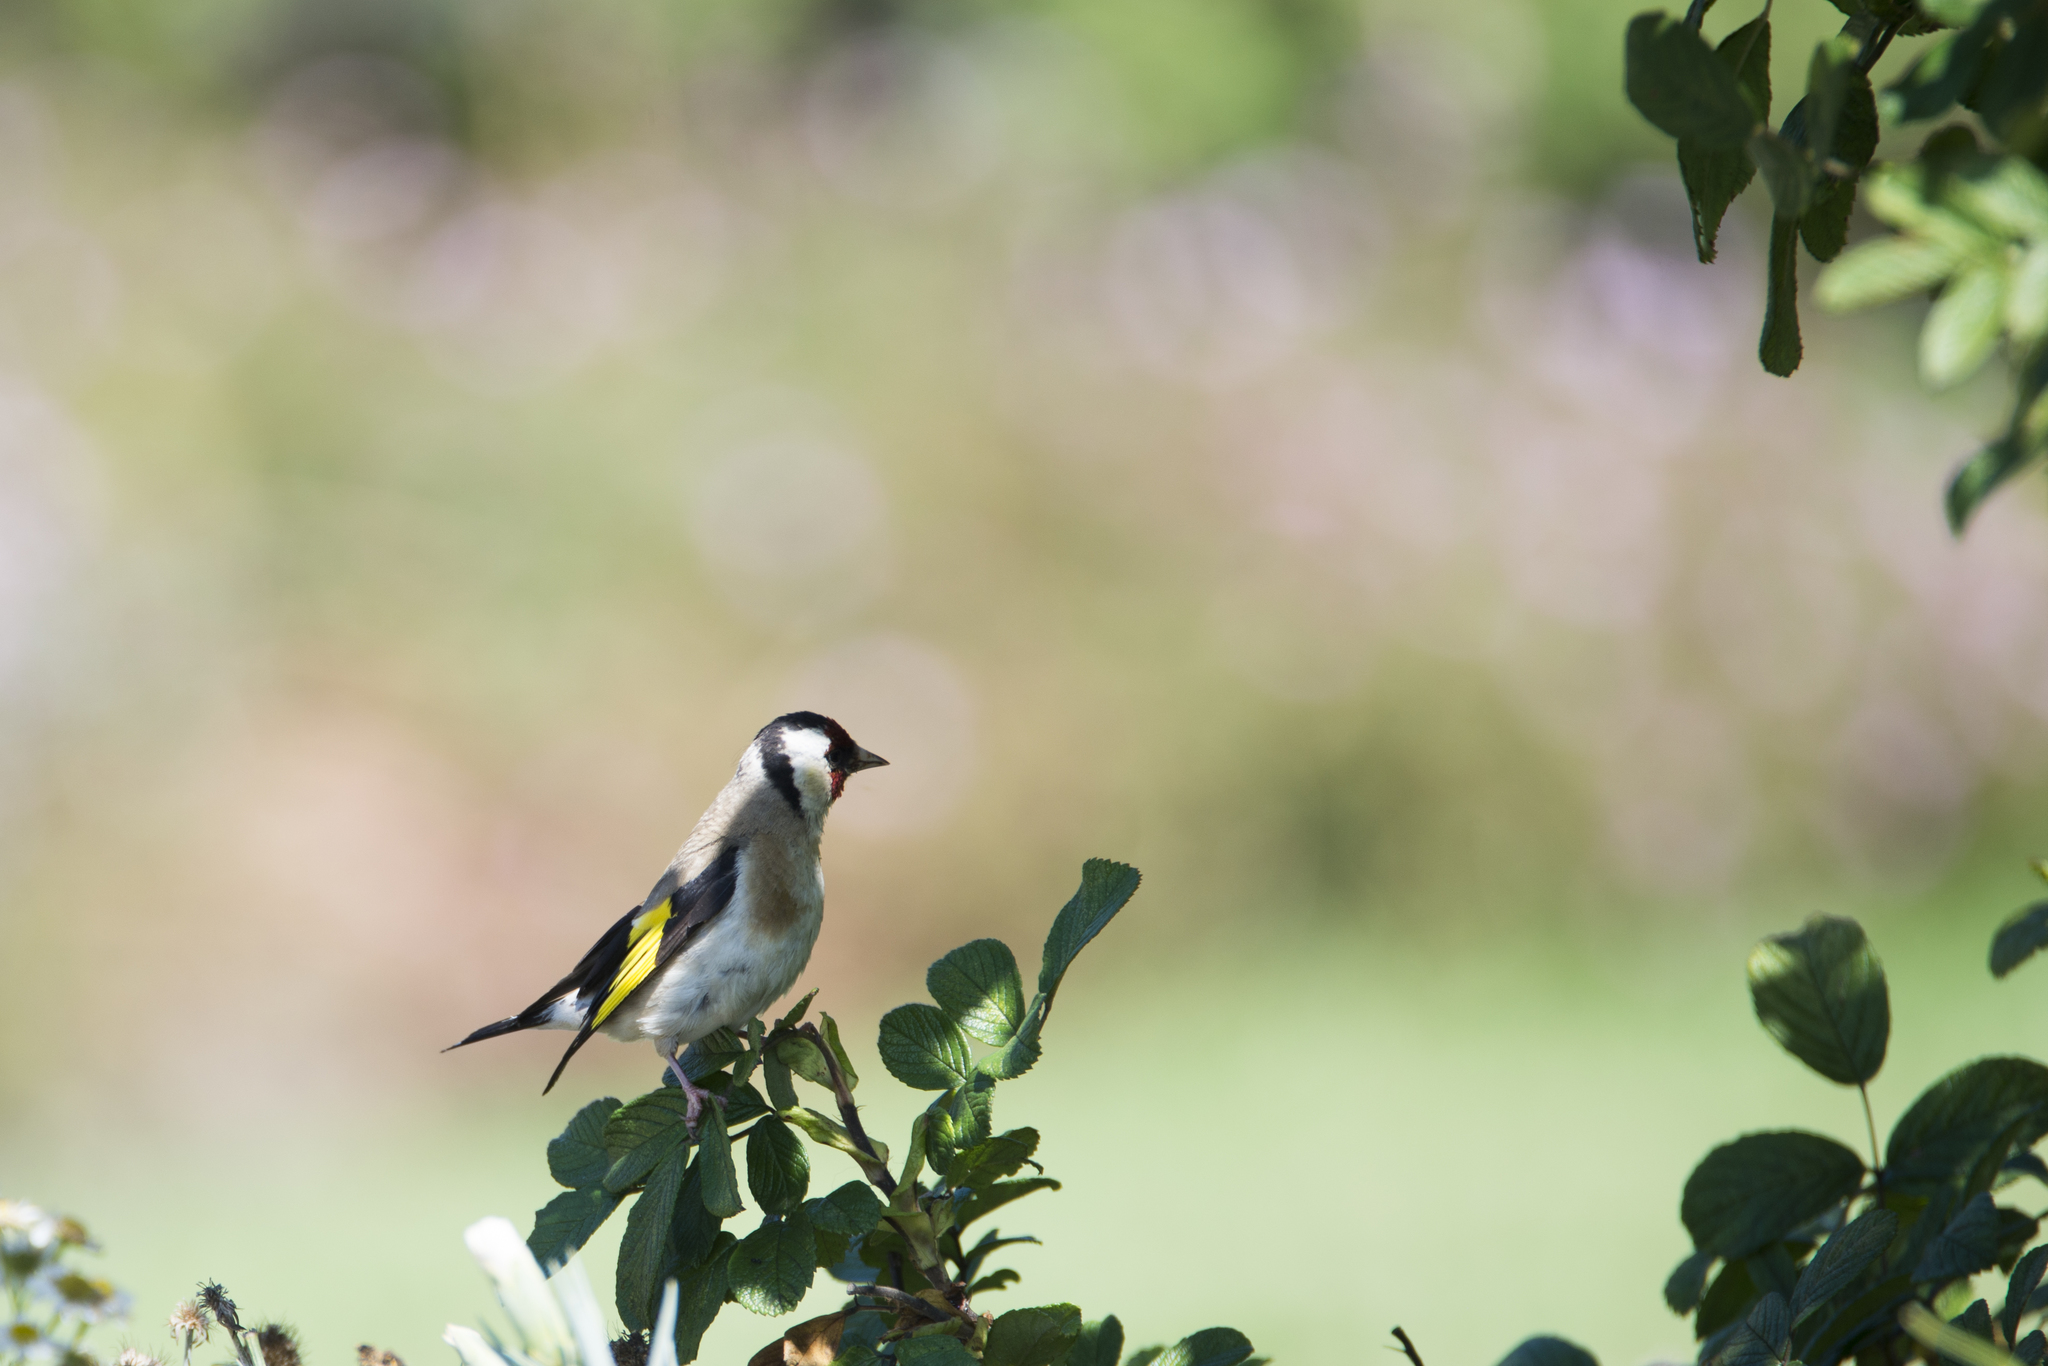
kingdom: Animalia
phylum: Chordata
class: Aves
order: Passeriformes
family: Fringillidae
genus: Carduelis
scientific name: Carduelis carduelis
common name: European goldfinch
